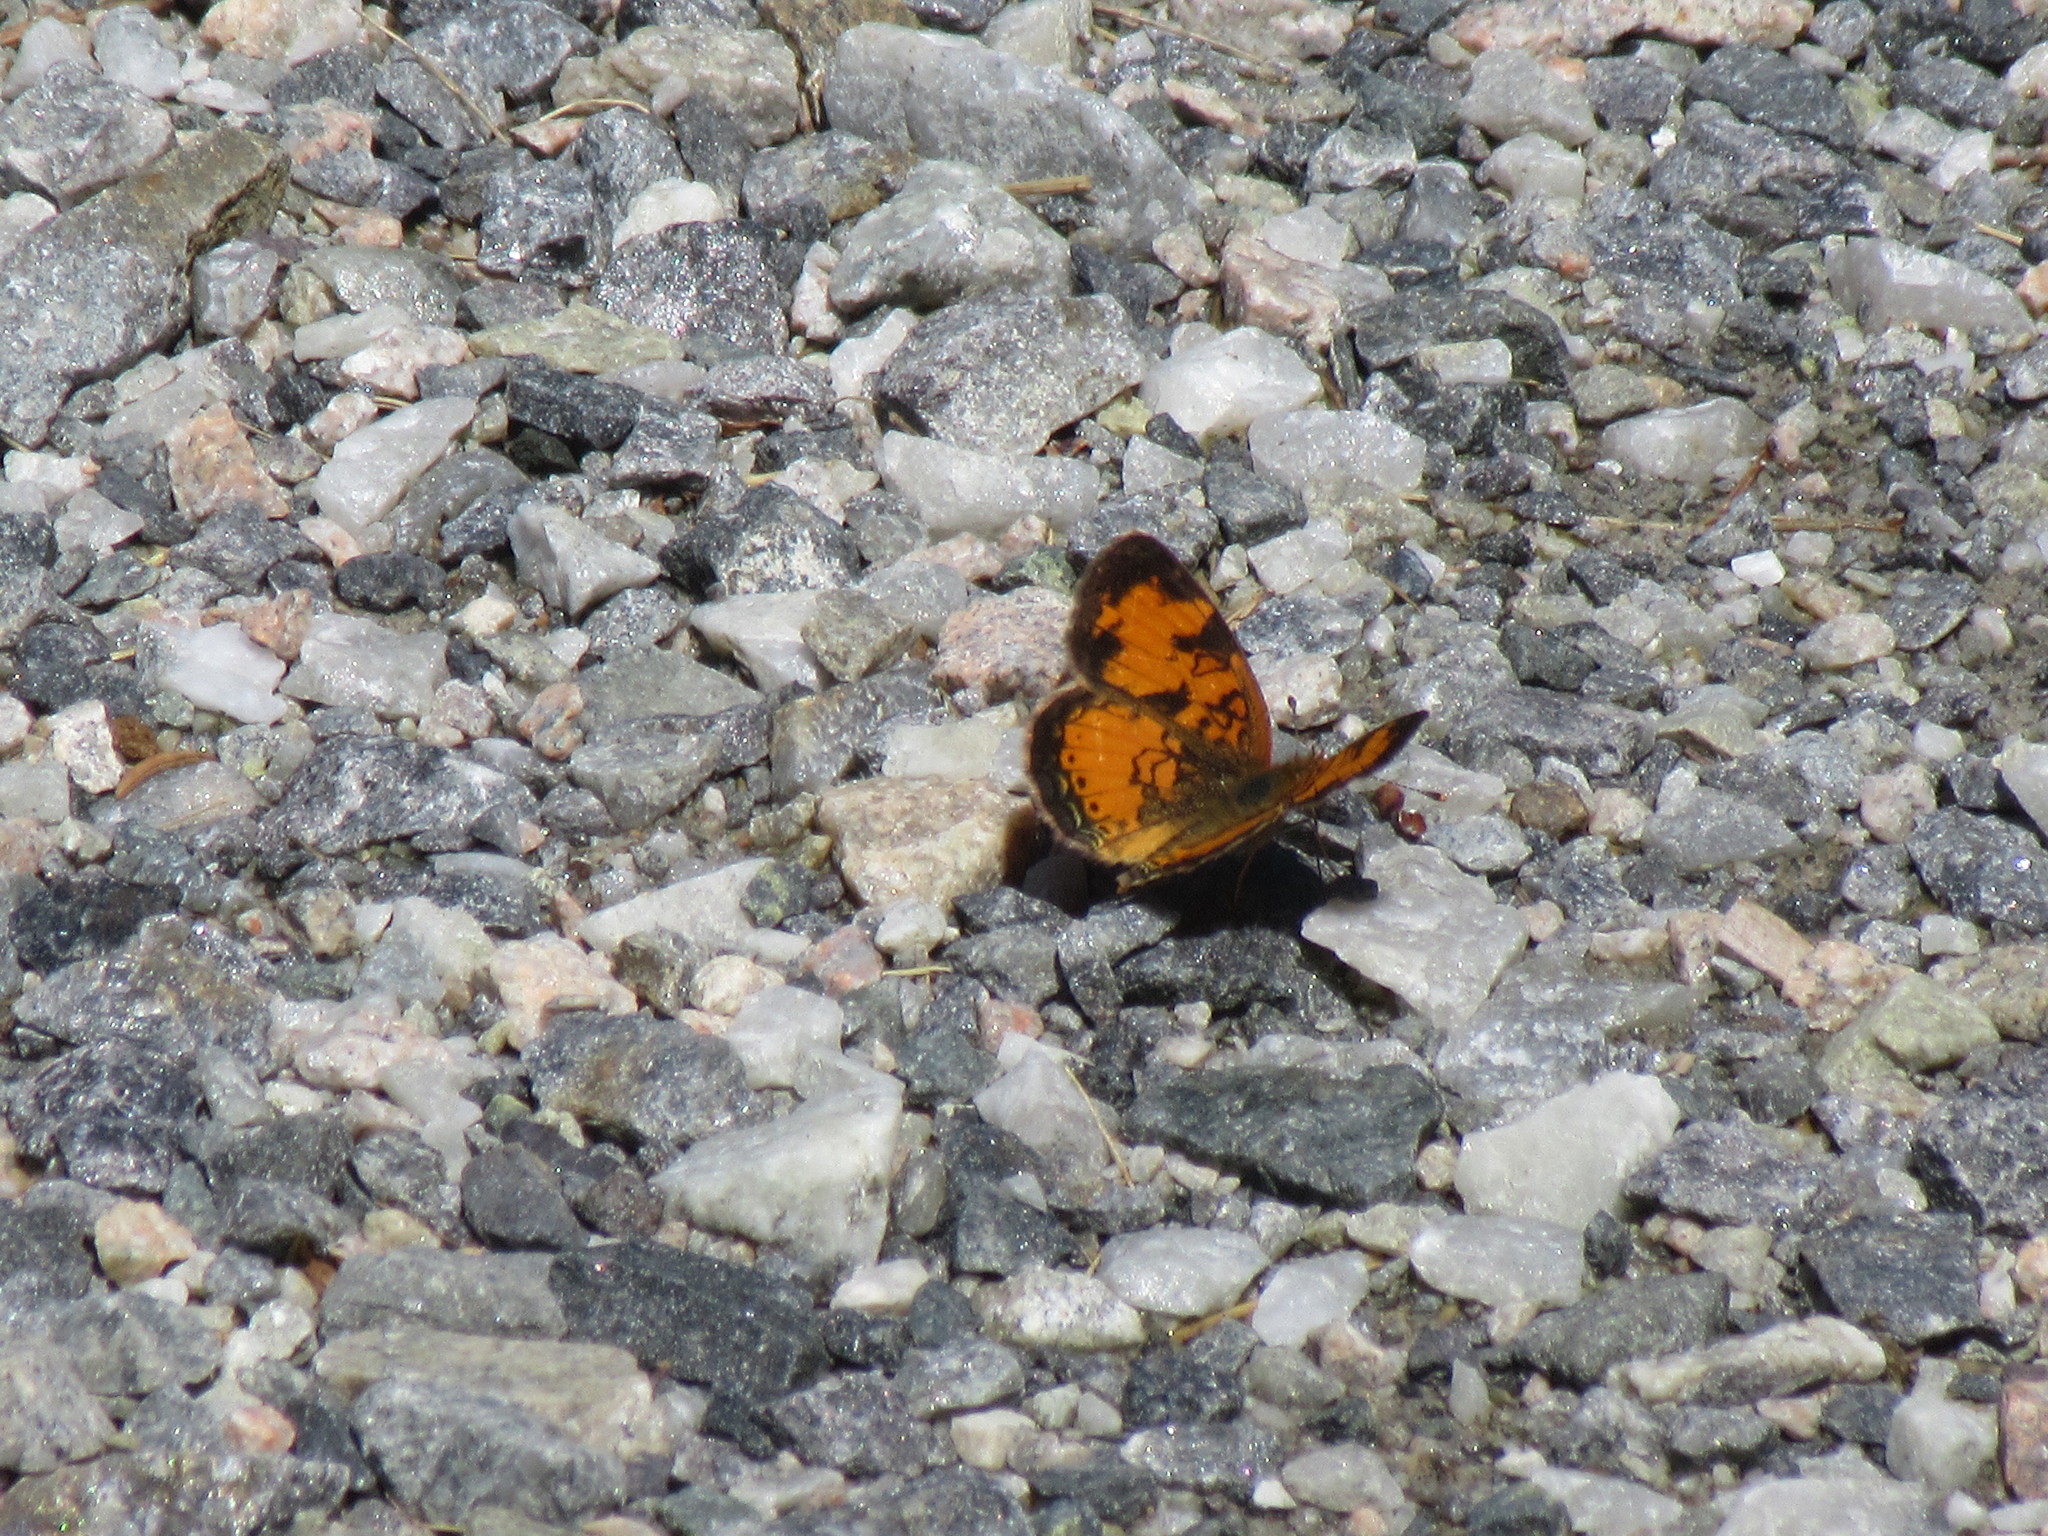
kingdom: Animalia
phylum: Arthropoda
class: Insecta
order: Lepidoptera
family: Nymphalidae
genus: Phyciodes
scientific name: Phyciodes tharos
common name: Pearl crescent
